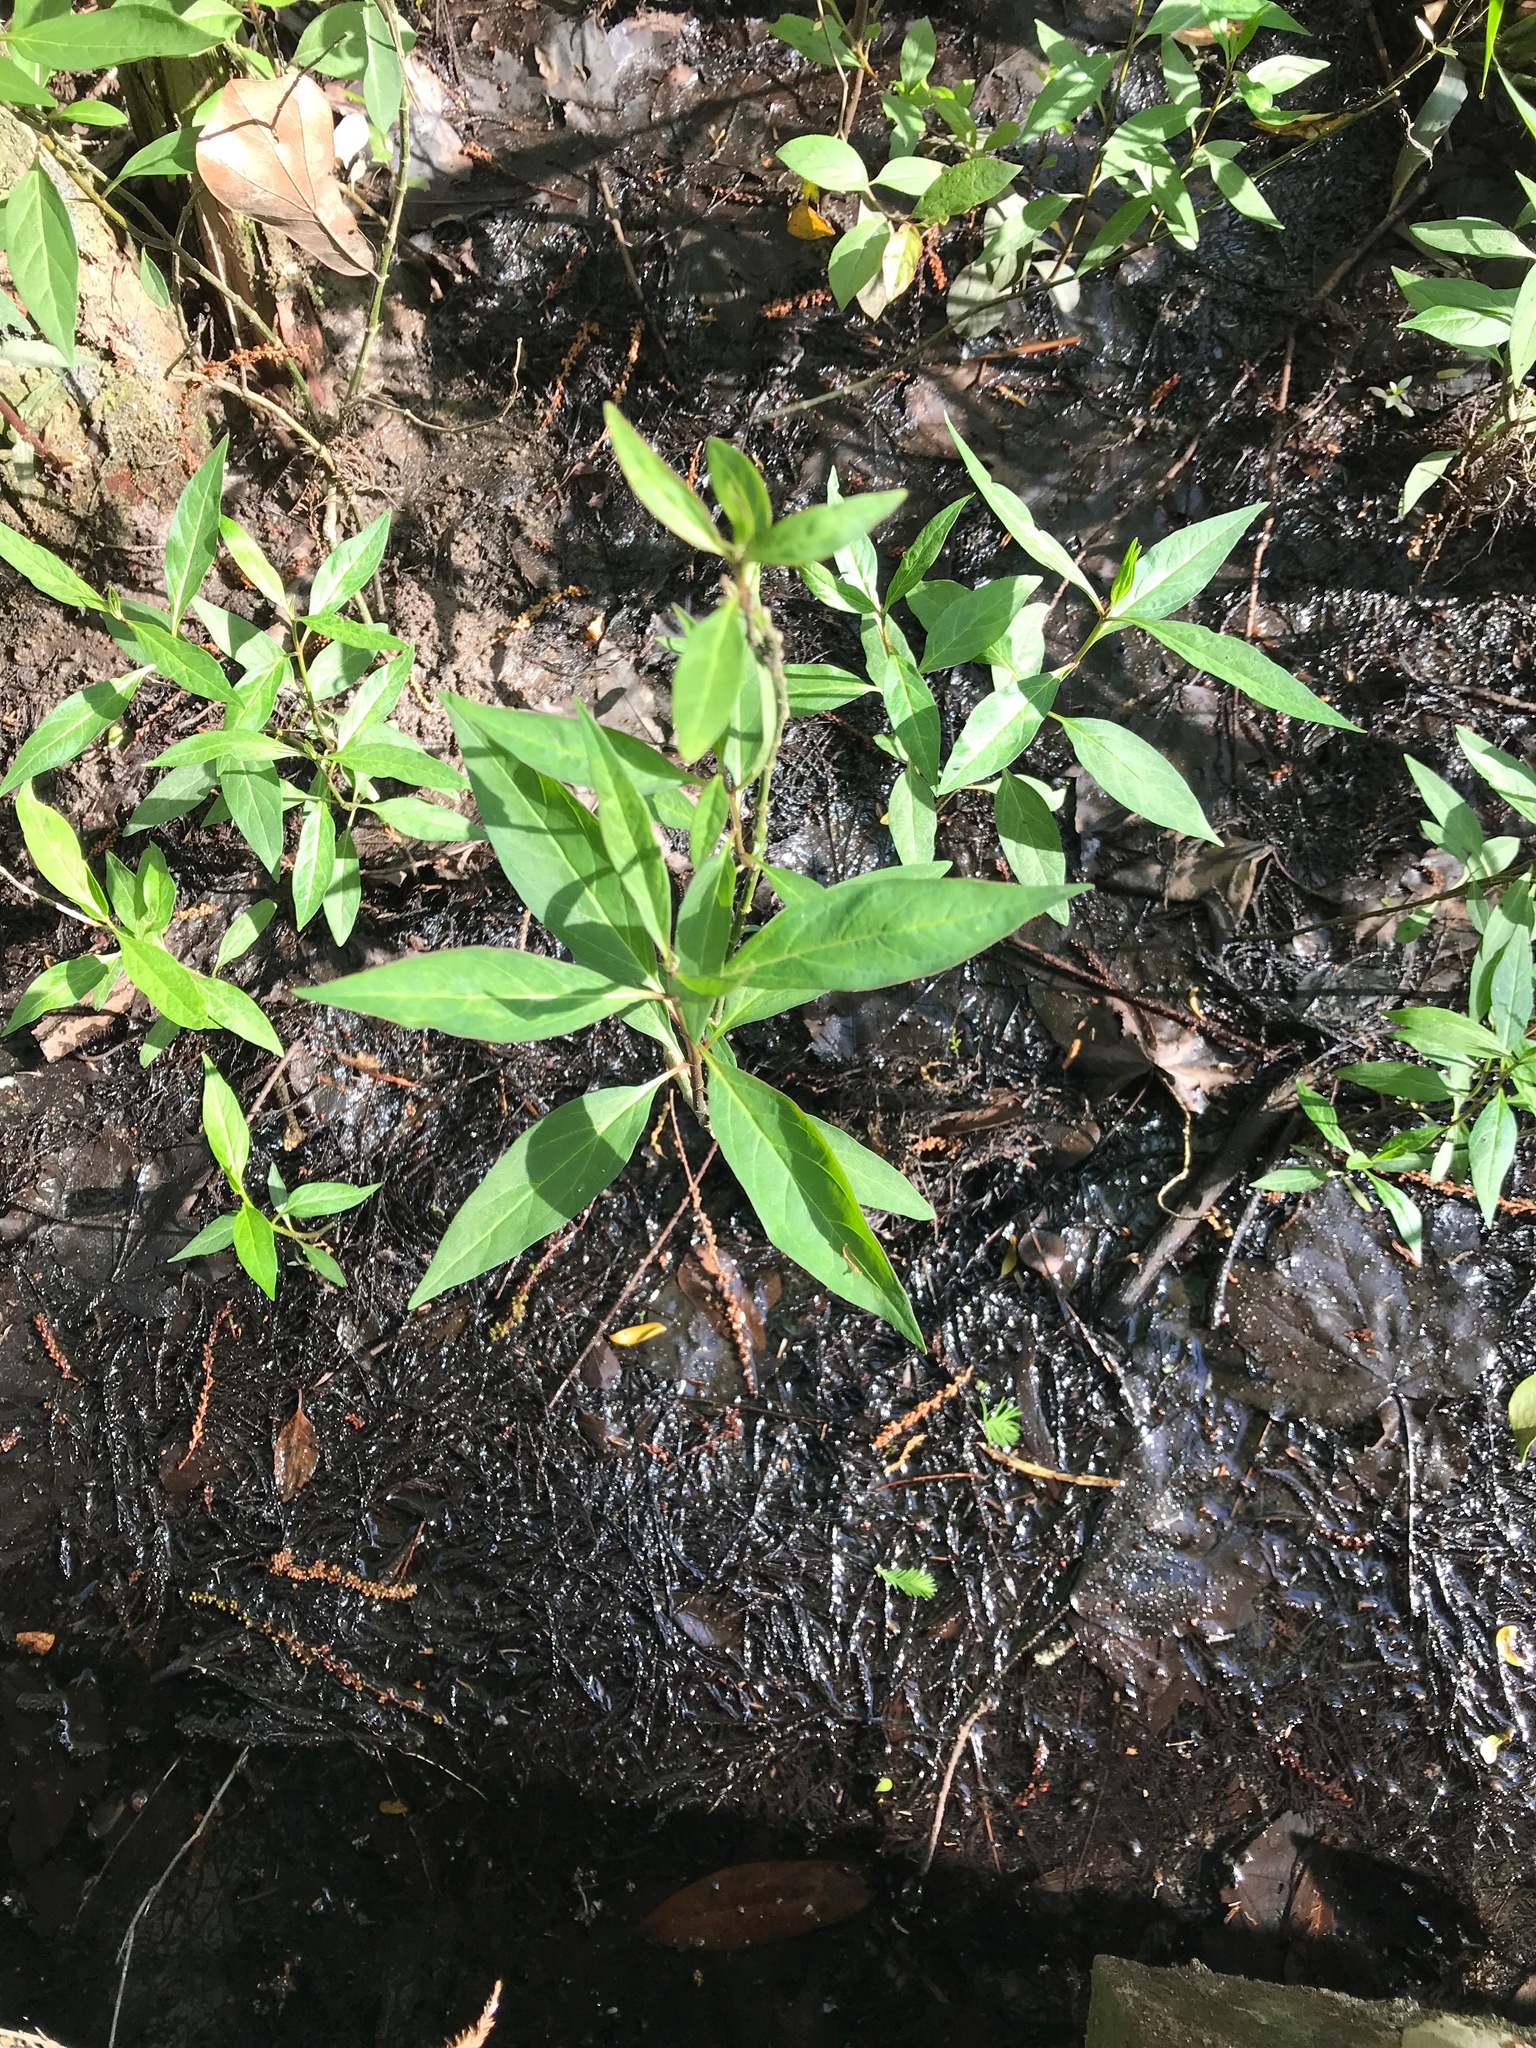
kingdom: Plantae
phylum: Tracheophyta
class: Magnoliopsida
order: Gentianales
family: Apocynaceae
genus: Asclepias
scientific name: Asclepias perennis
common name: Smooth-seed milkweed
